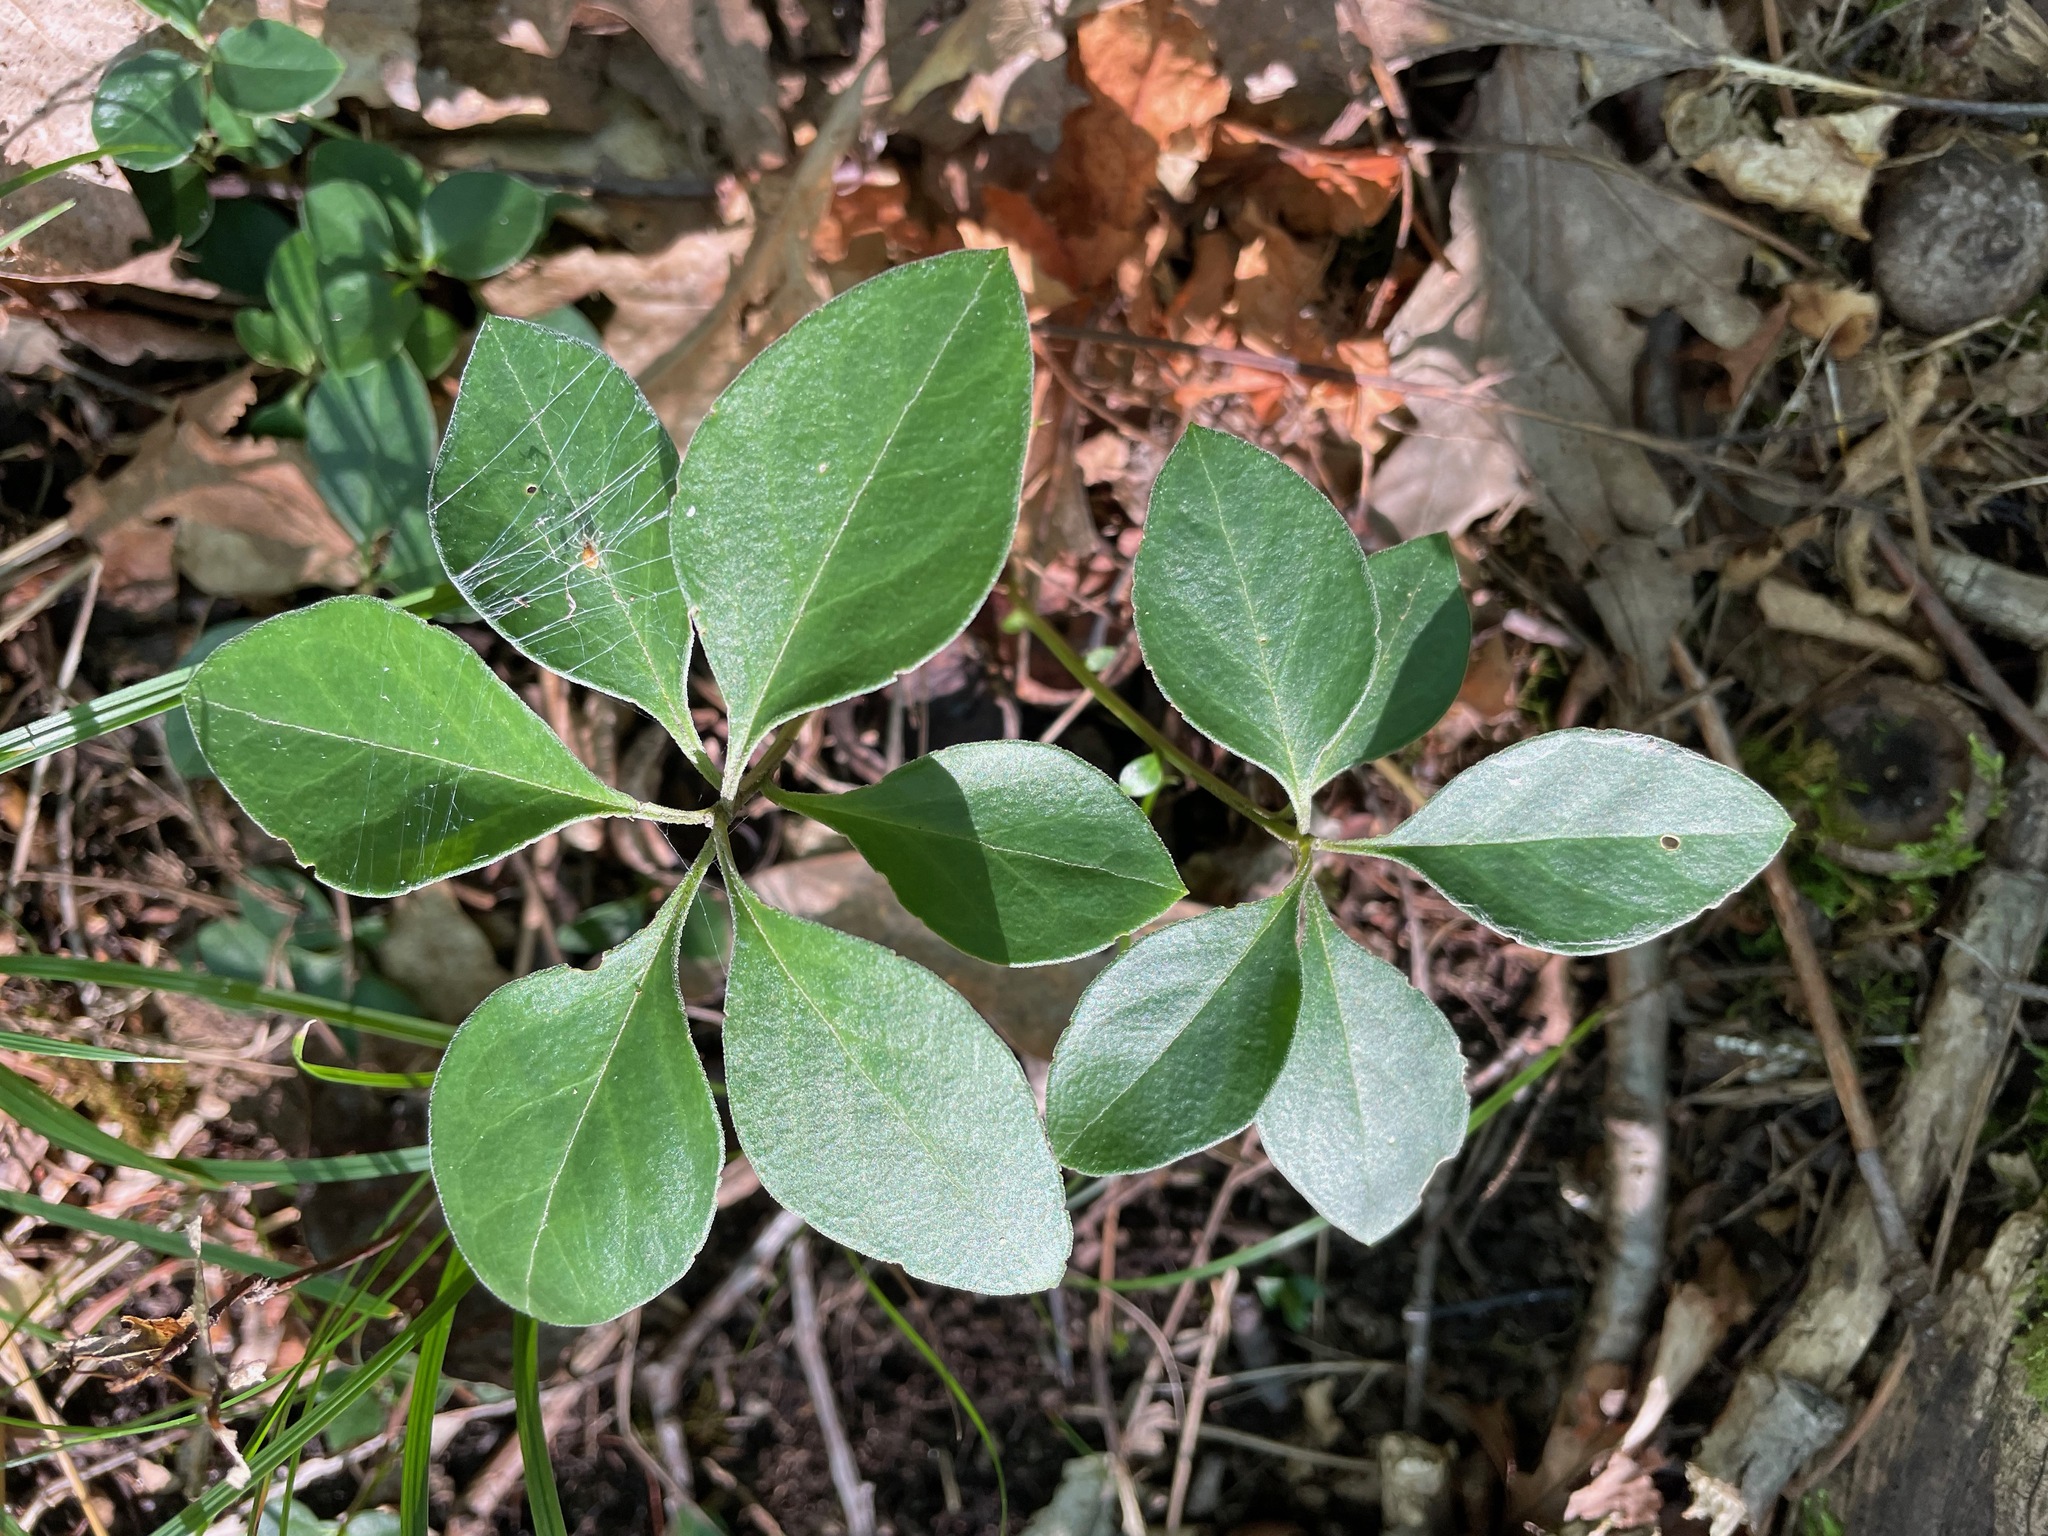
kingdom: Plantae
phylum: Tracheophyta
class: Magnoliopsida
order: Fabales
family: Polygalaceae
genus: Polygaloides
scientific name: Polygaloides paucifolia
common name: Bird-on-the-wing
